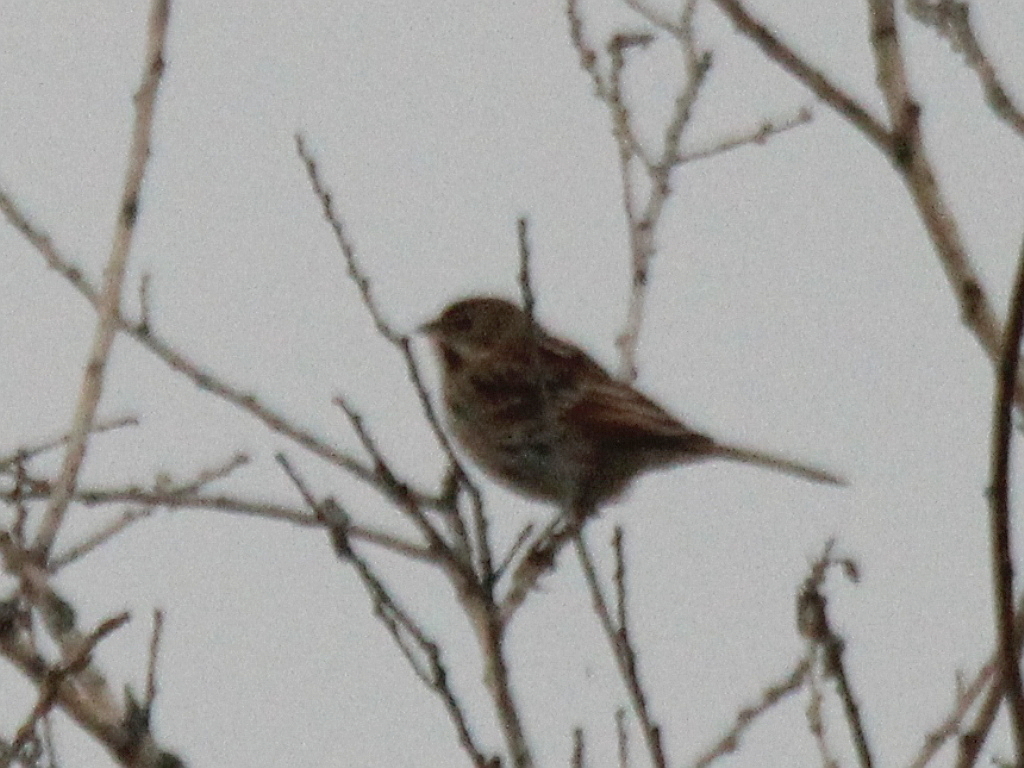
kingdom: Animalia
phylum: Chordata
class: Aves
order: Passeriformes
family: Emberizidae
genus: Emberiza
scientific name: Emberiza schoeniclus
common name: Reed bunting
